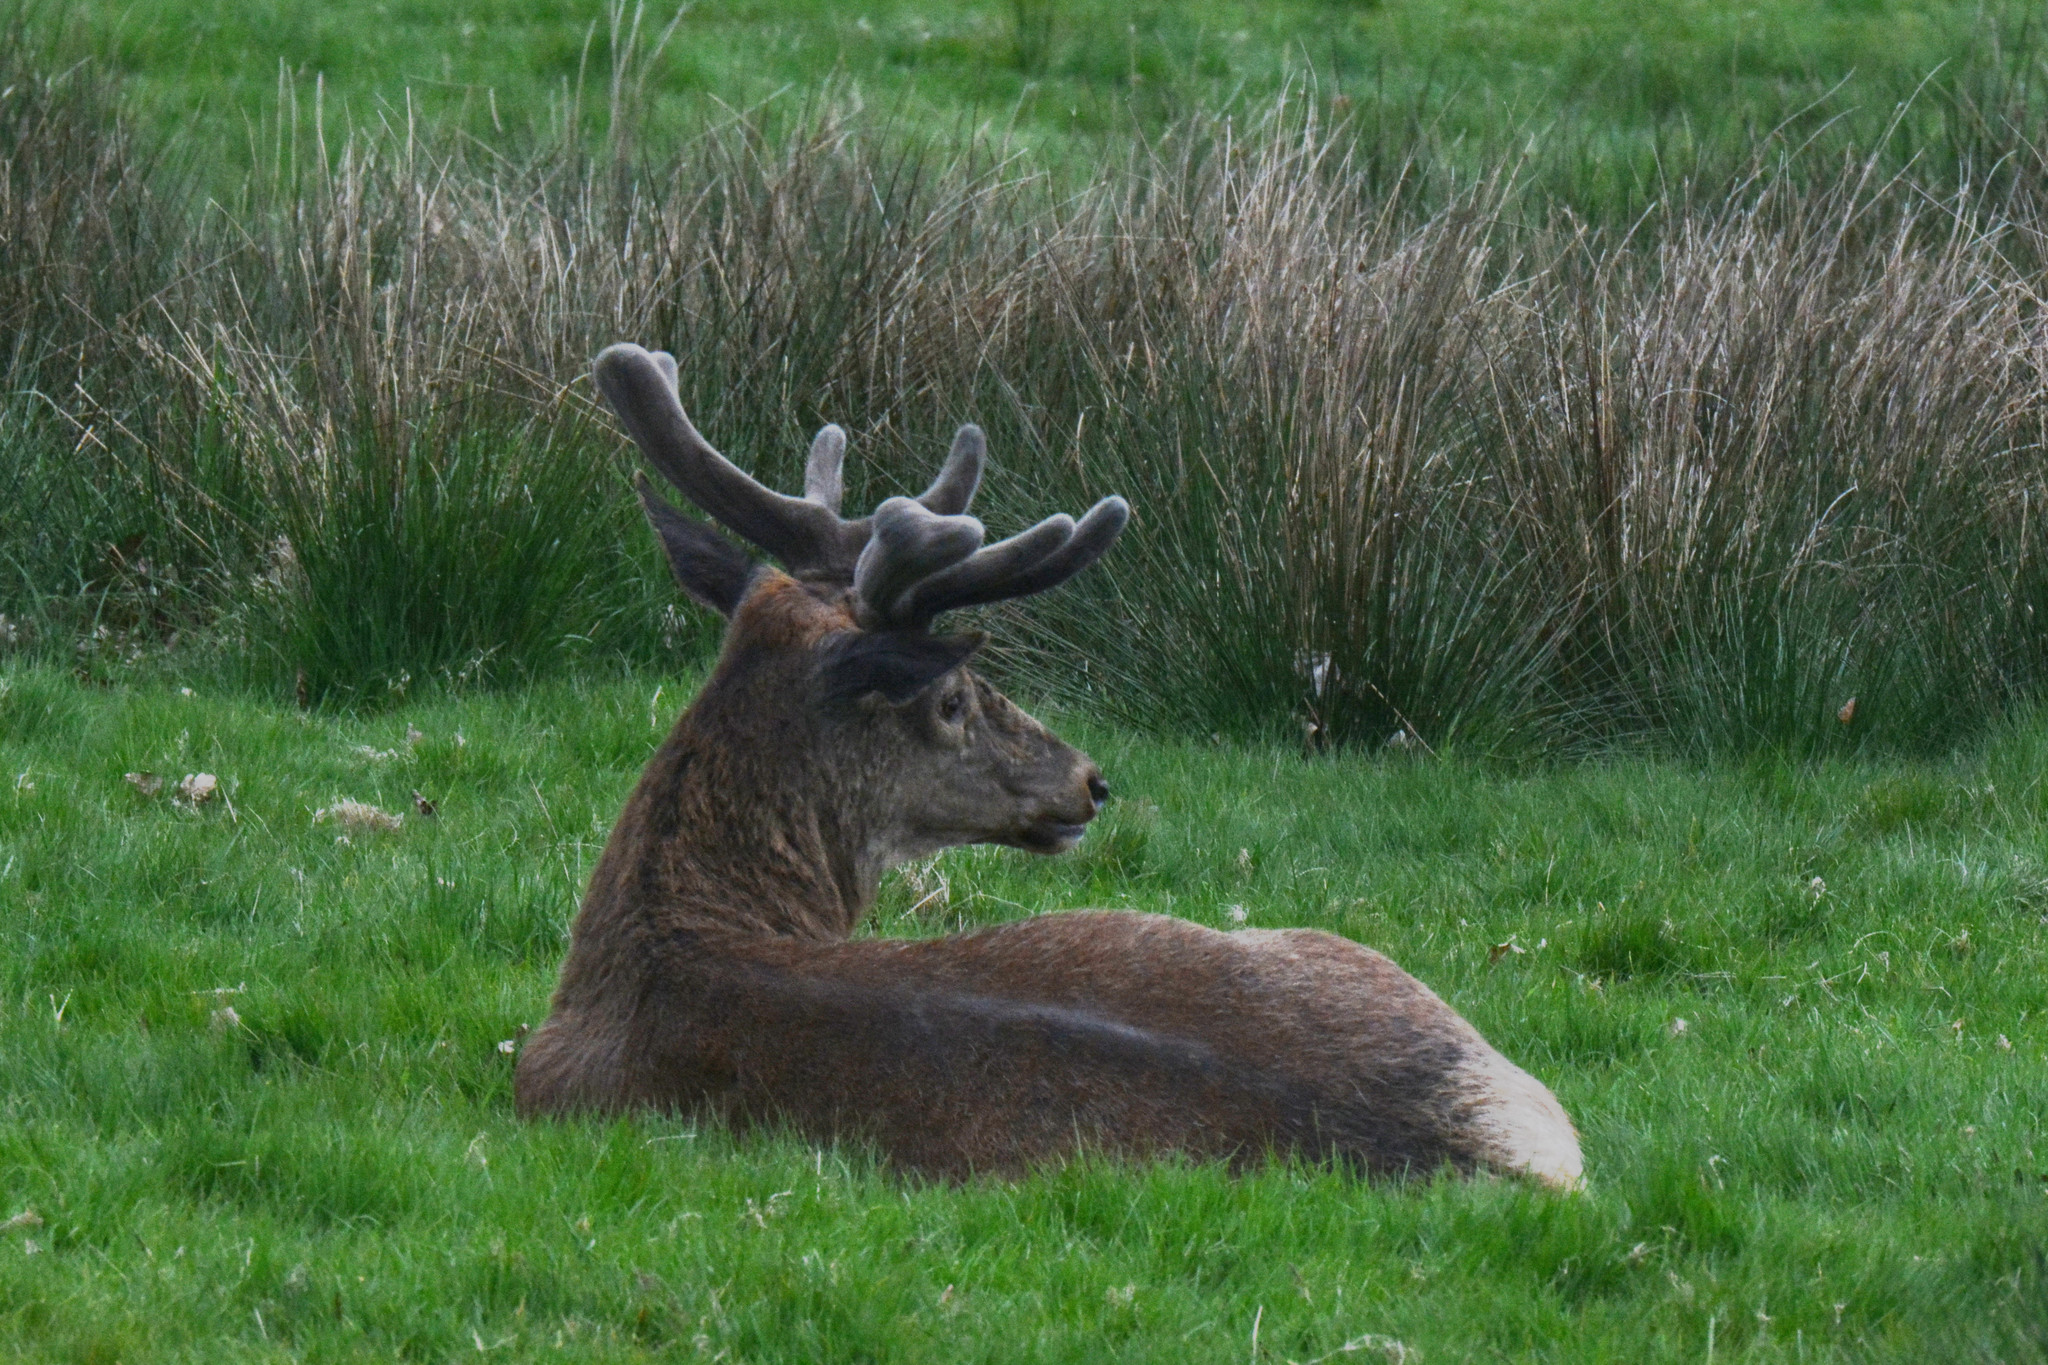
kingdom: Animalia
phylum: Chordata
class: Mammalia
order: Artiodactyla
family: Cervidae
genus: Cervus
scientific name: Cervus elaphus
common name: Red deer
